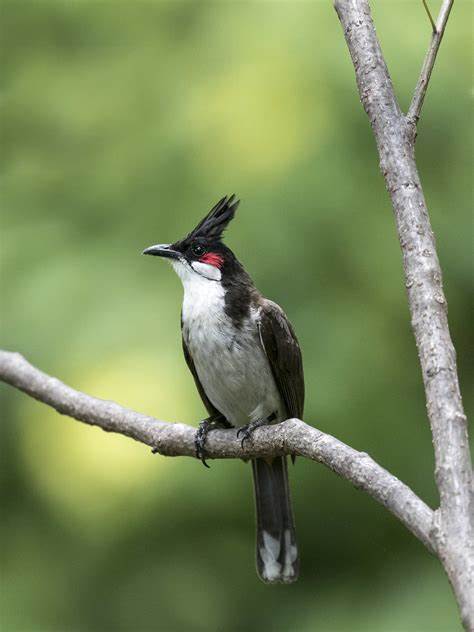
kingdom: Animalia
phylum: Chordata
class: Aves
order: Passeriformes
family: Pycnonotidae
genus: Pycnonotus
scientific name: Pycnonotus jocosus
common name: Red-whiskered bulbul
